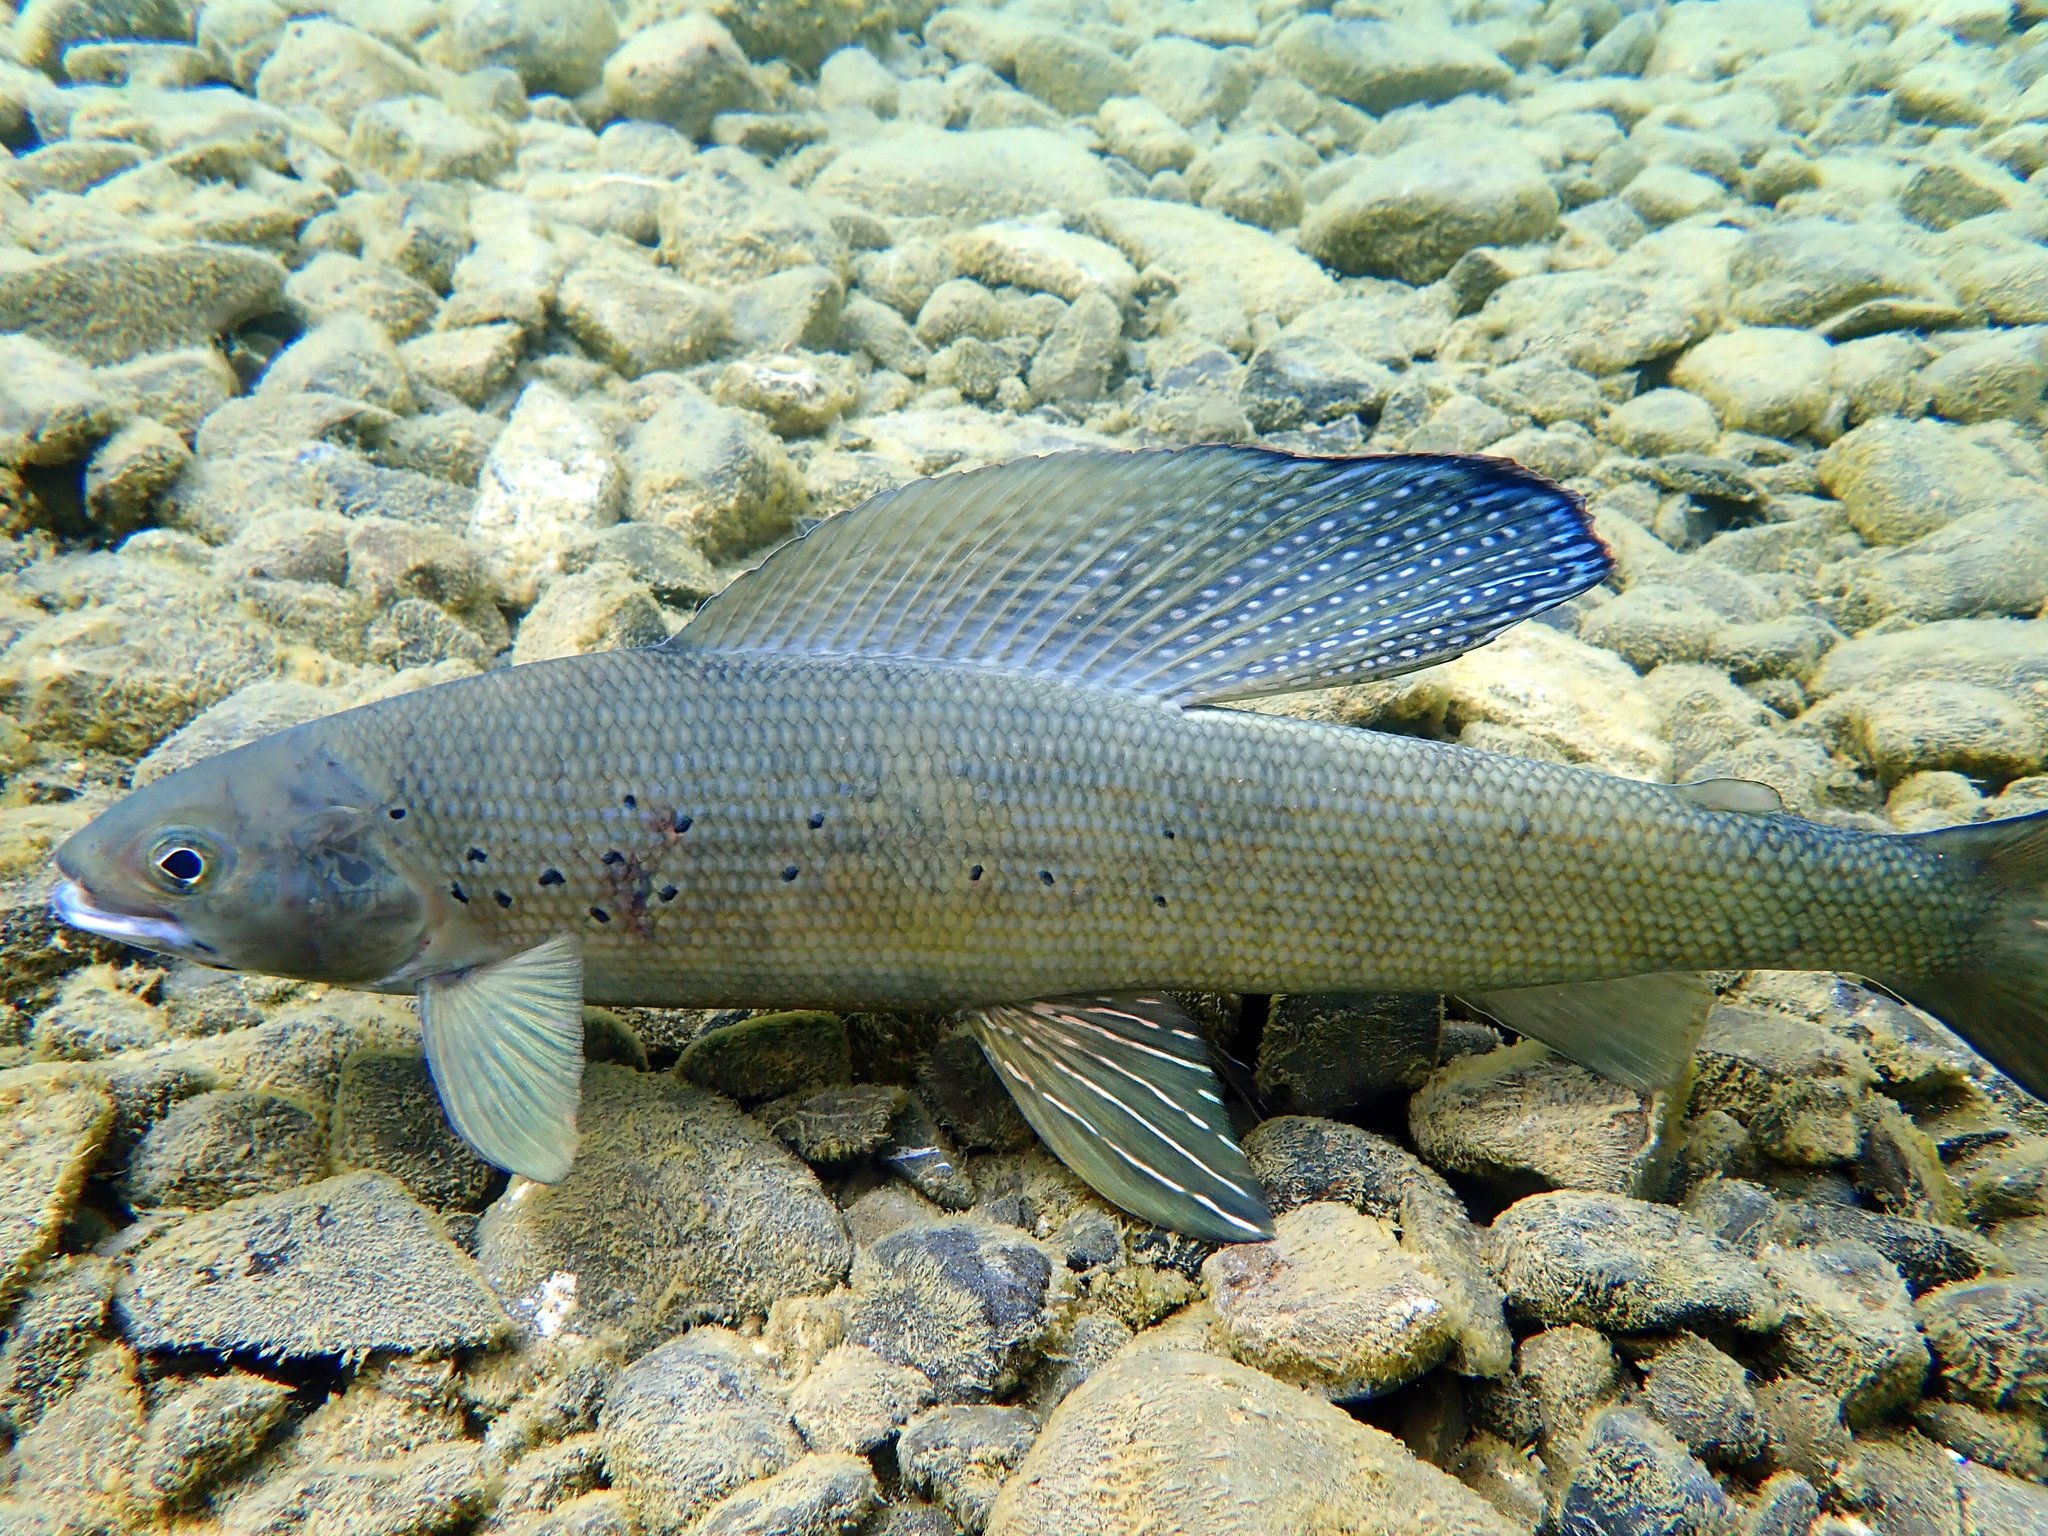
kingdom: Animalia
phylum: Chordata
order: Salmoniformes
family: Salmonidae
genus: Thymallus
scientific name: Thymallus arcticus
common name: Arctic grayling
